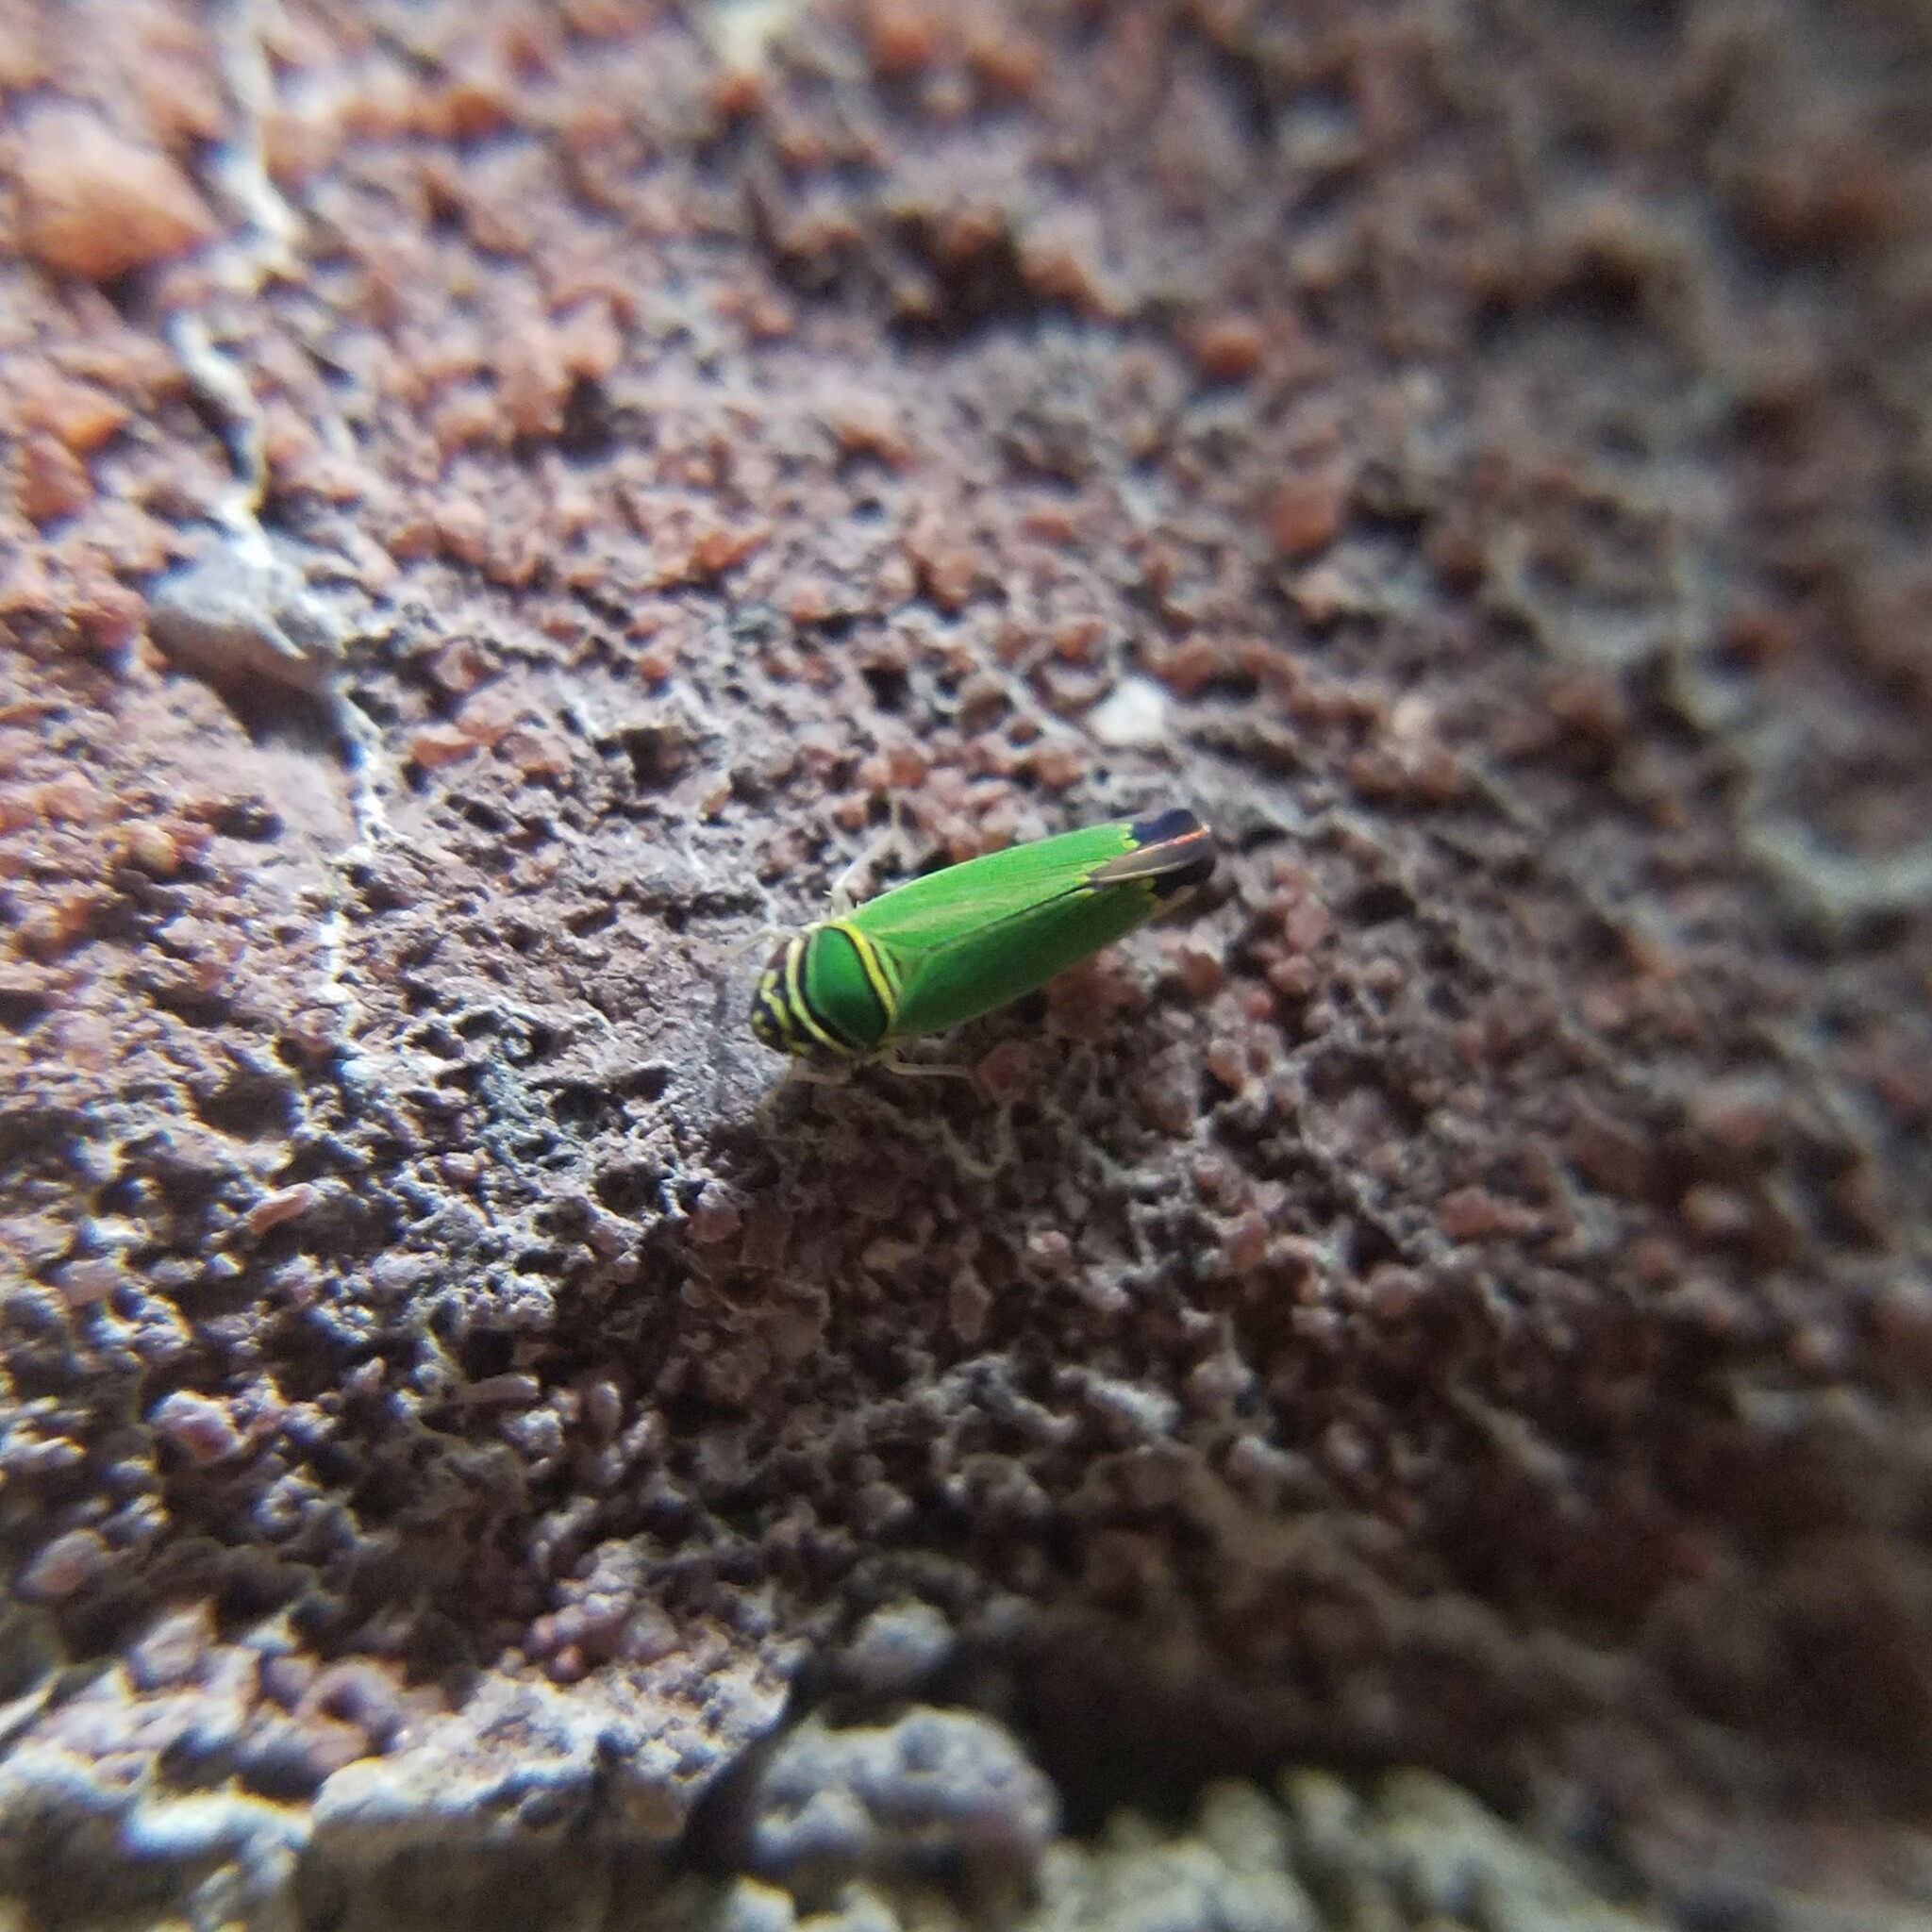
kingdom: Animalia
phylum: Arthropoda
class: Insecta
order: Hemiptera
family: Cicadellidae
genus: Tylozygus
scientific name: Tylozygus geometricus
